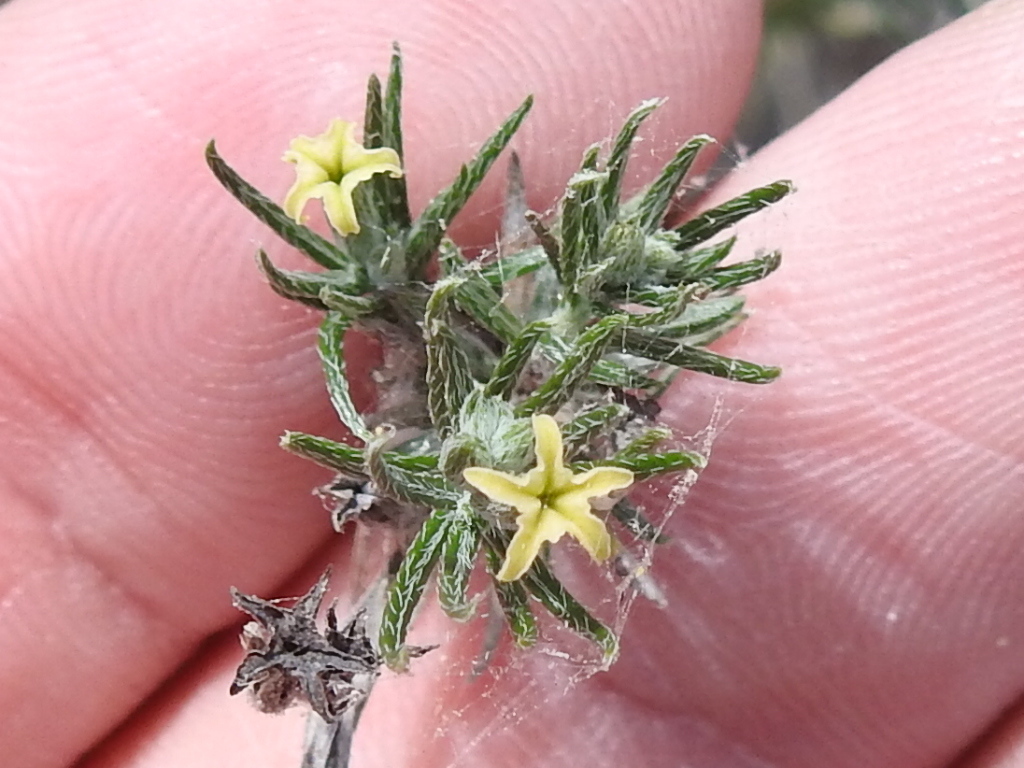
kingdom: Plantae
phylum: Tracheophyta
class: Magnoliopsida
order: Boraginales
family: Heliotropiaceae
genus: Euploca
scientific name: Euploca torreyi
